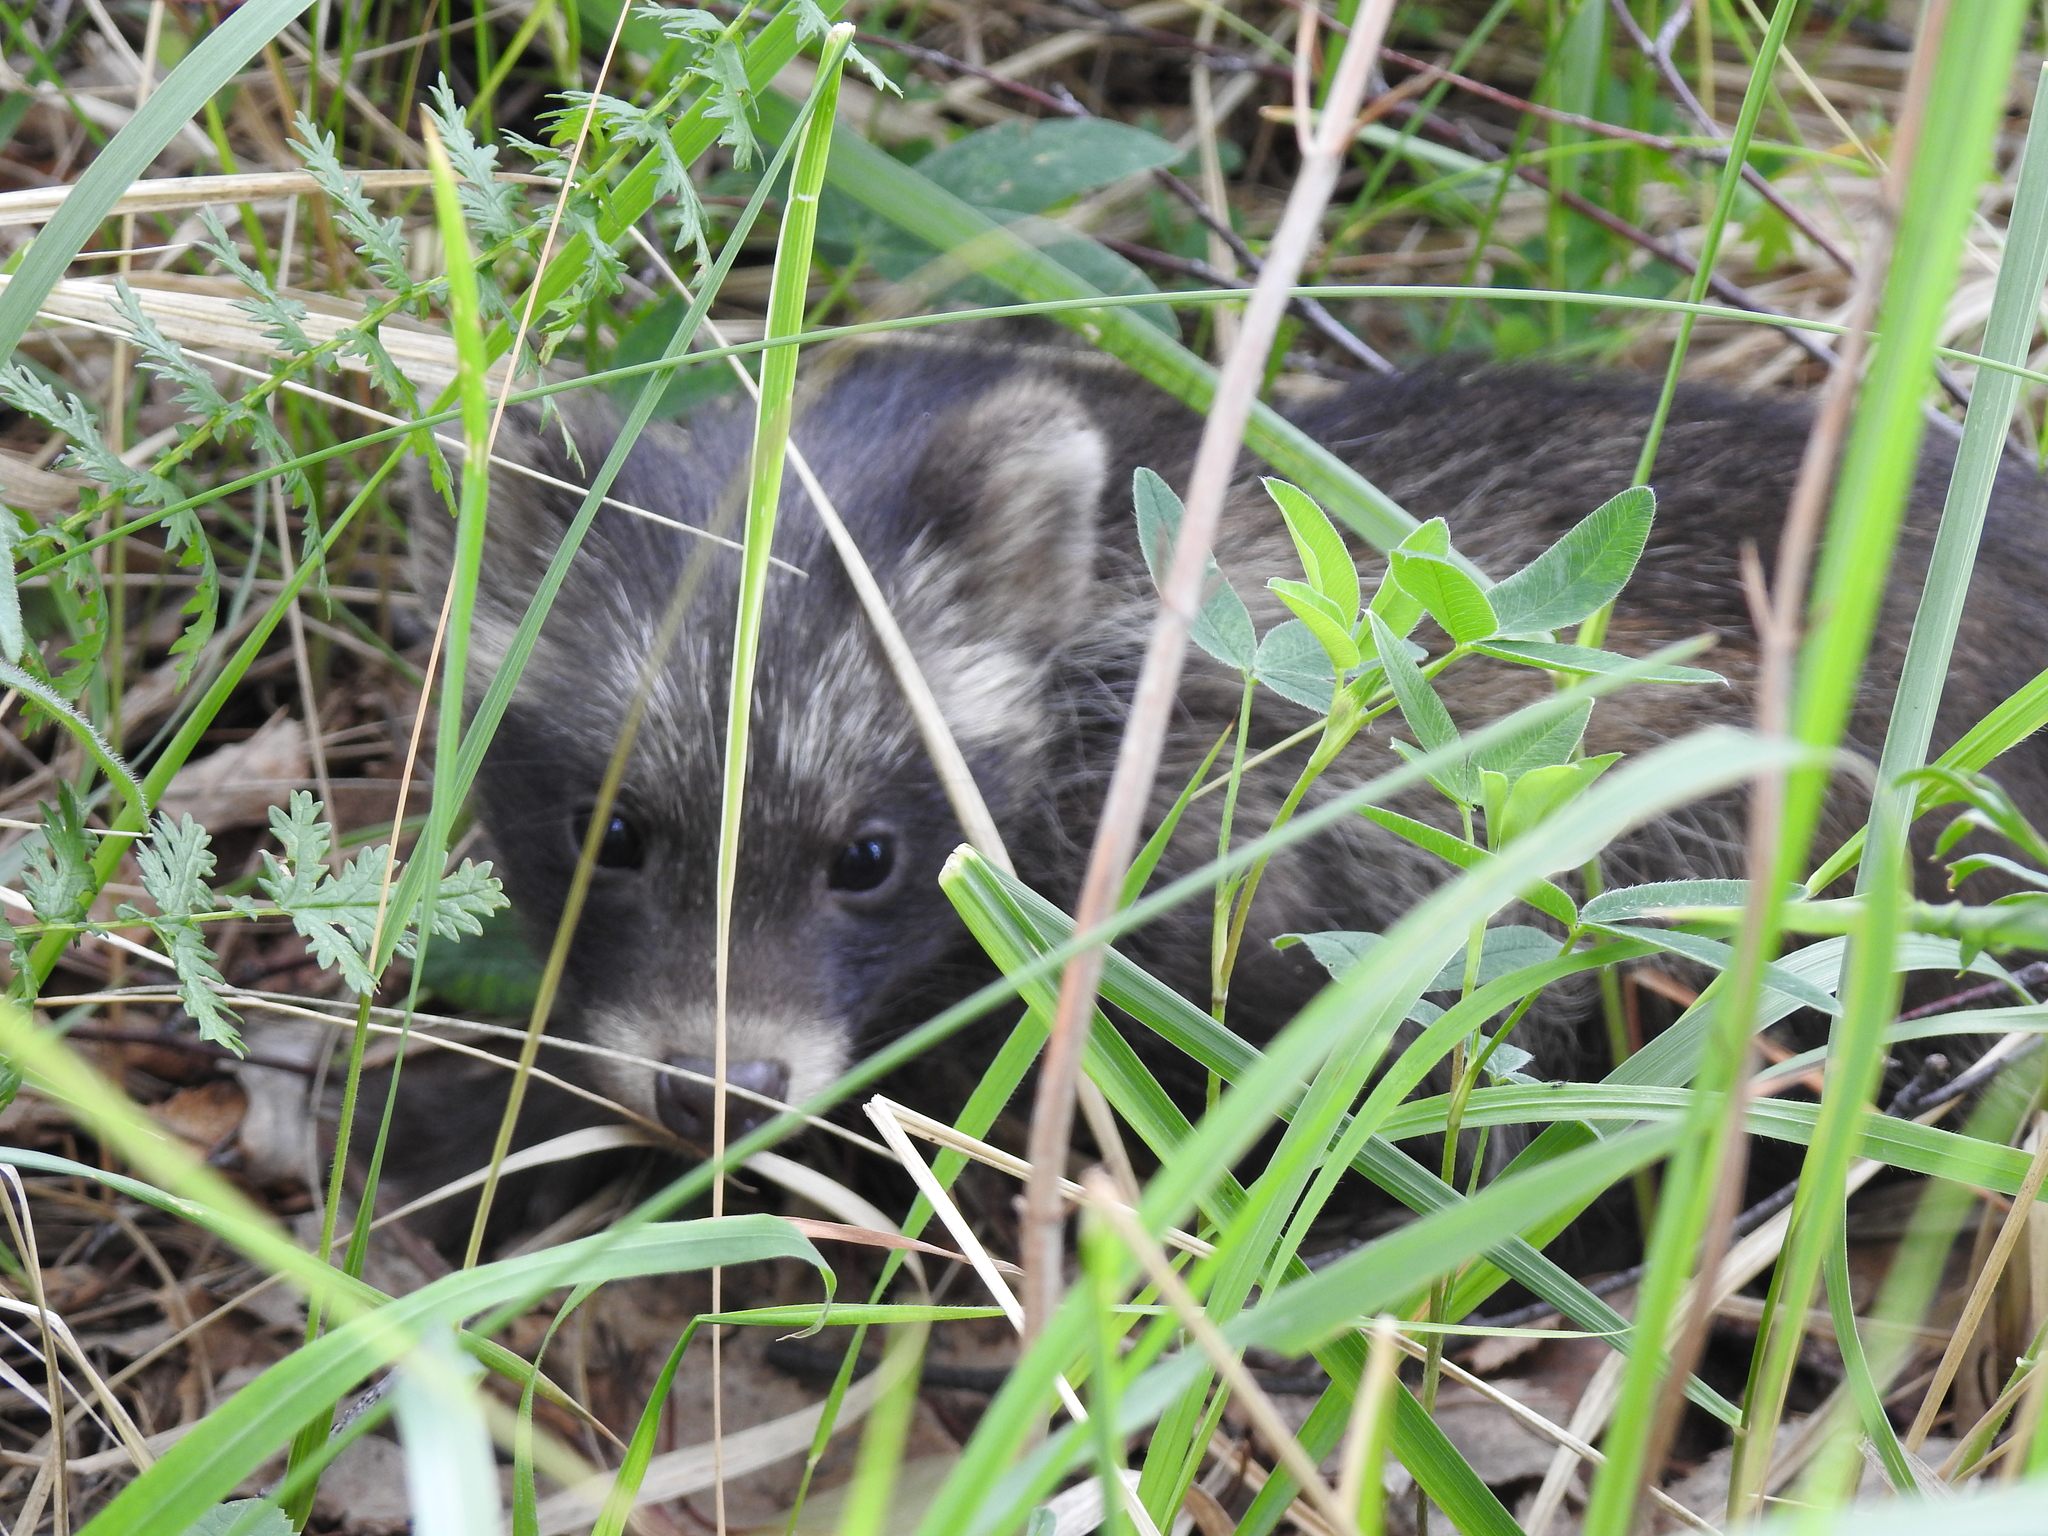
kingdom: Animalia
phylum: Chordata
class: Mammalia
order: Carnivora
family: Canidae
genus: Nyctereutes
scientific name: Nyctereutes procyonoides
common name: Raccoon dog
